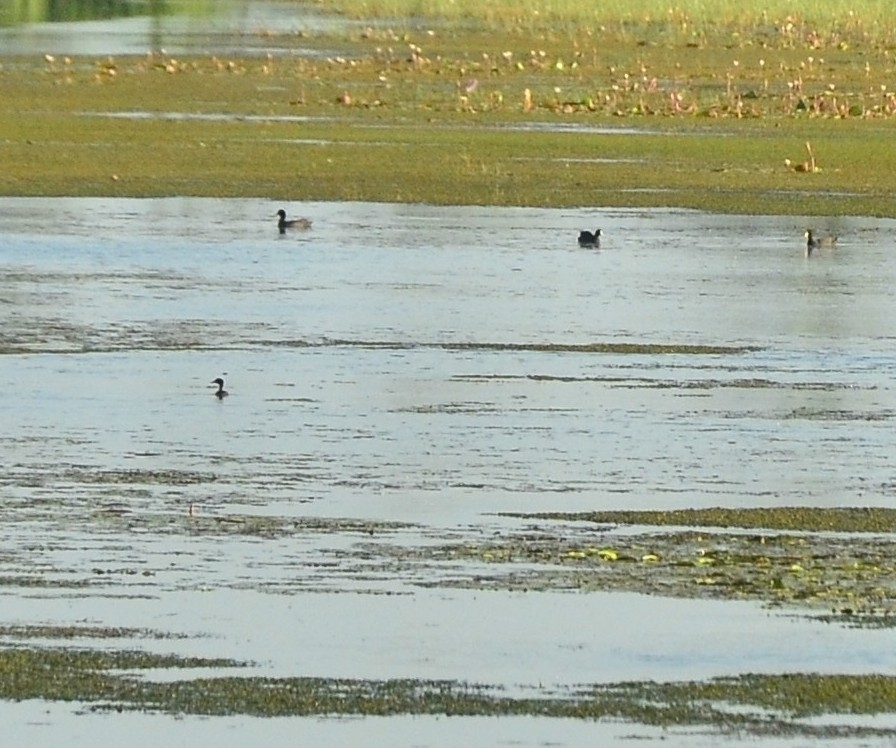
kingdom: Animalia
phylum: Chordata
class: Aves
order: Gruiformes
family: Rallidae
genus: Fulica
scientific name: Fulica atra
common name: Eurasian coot
